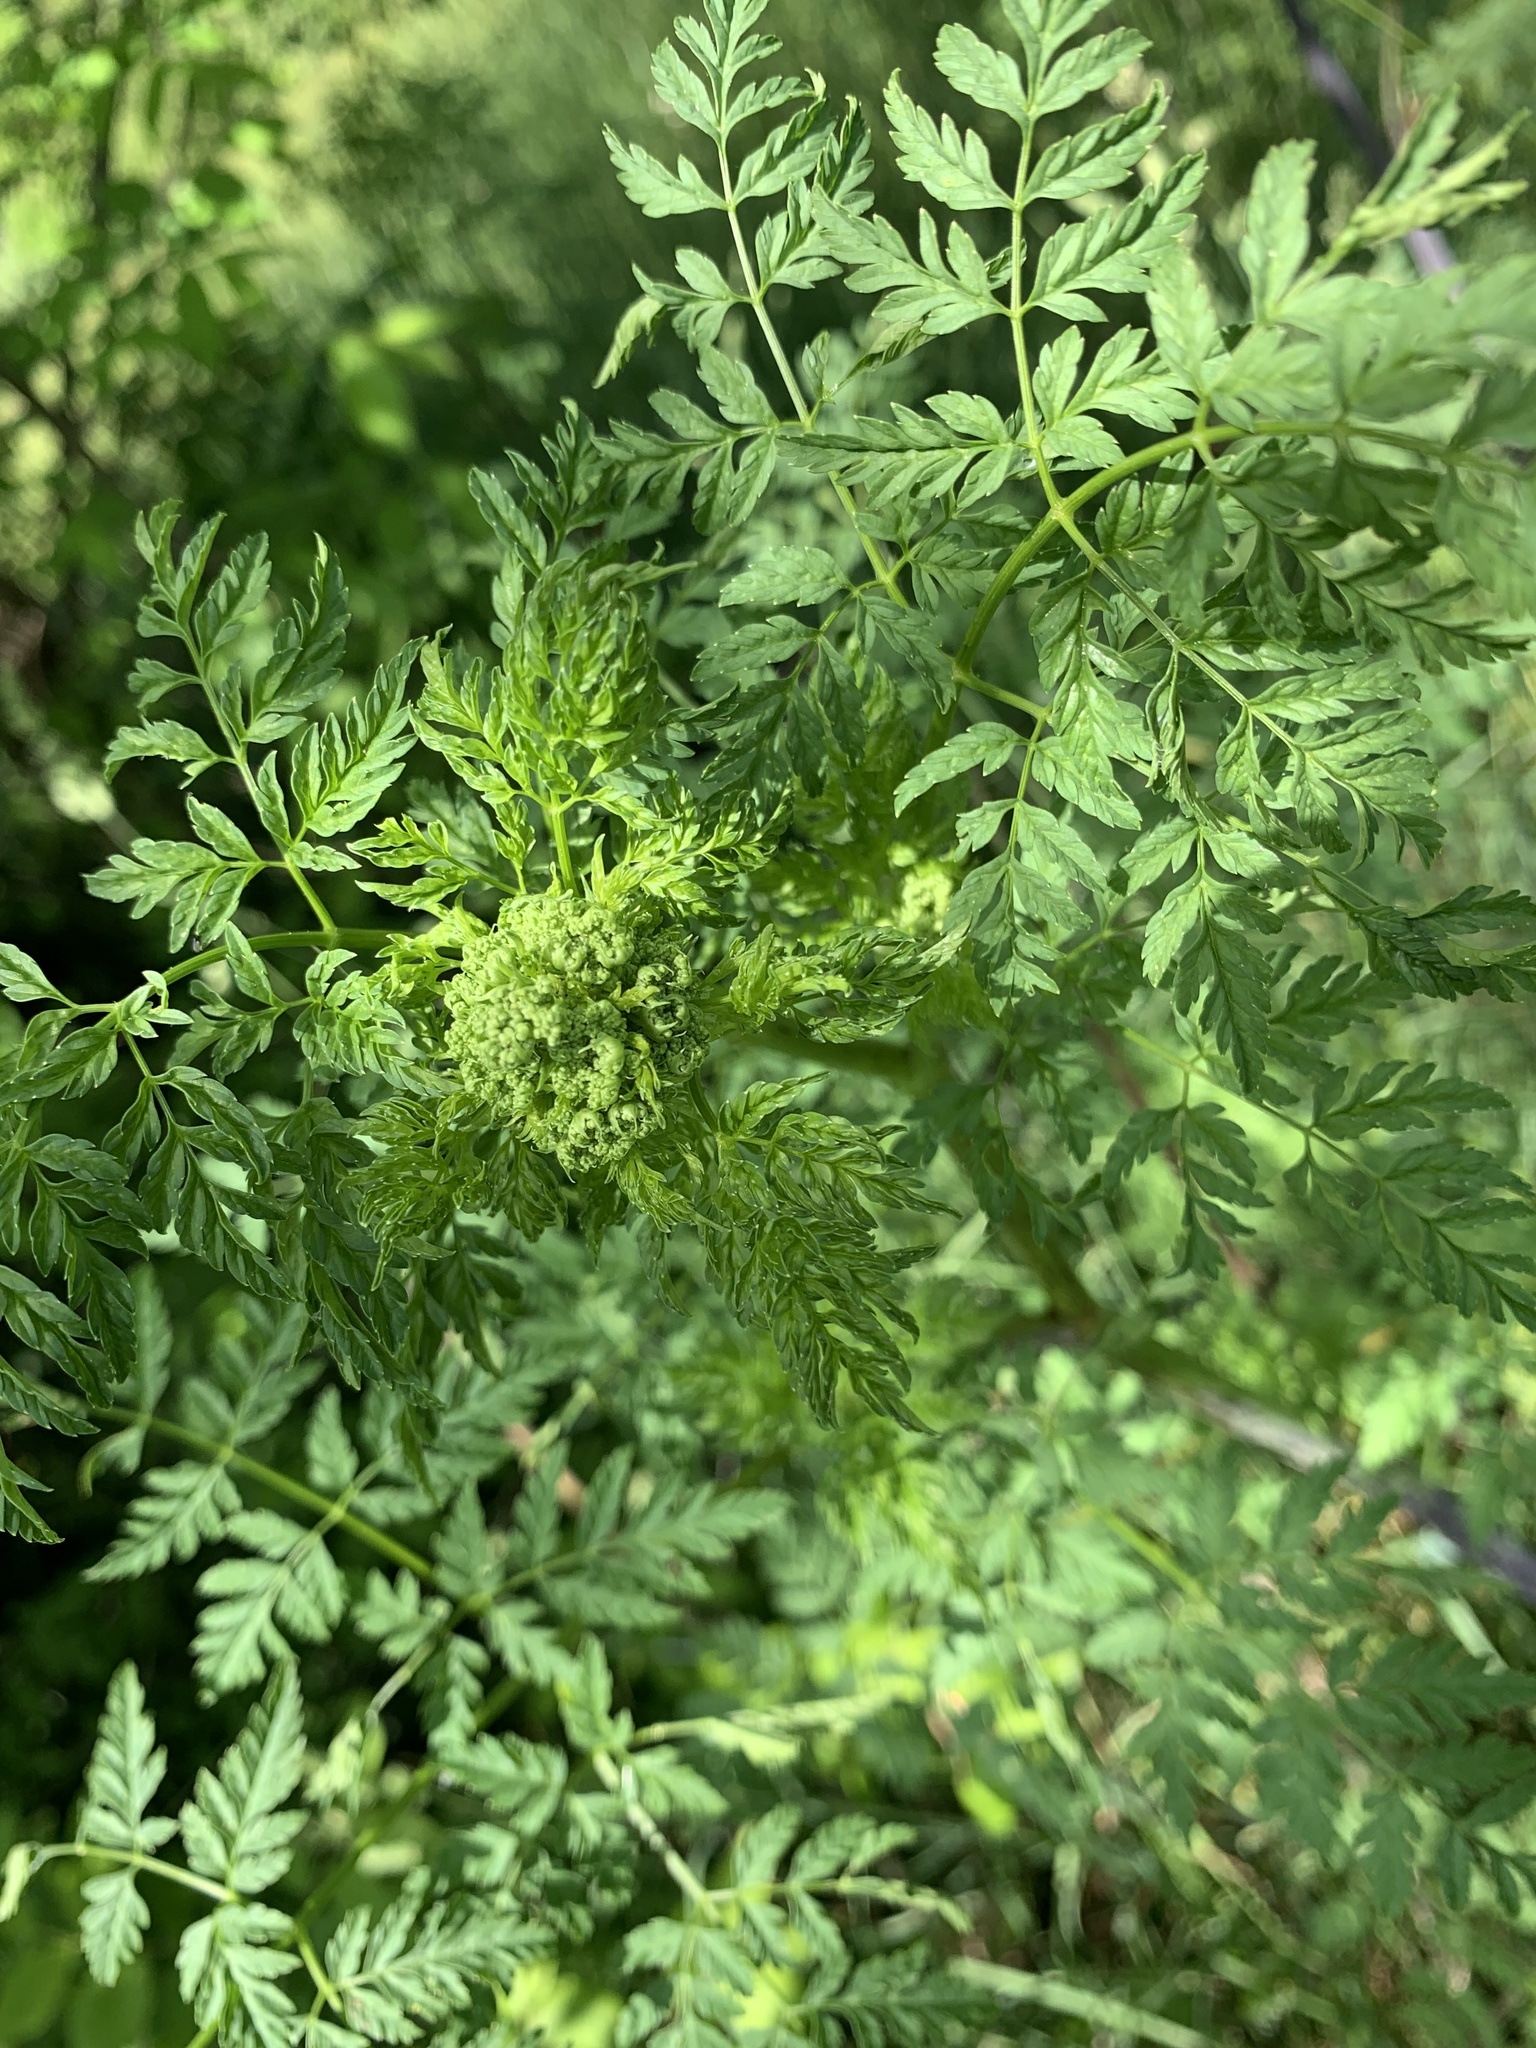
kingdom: Plantae
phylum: Tracheophyta
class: Magnoliopsida
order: Apiales
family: Apiaceae
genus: Conium
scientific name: Conium maculatum
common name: Hemlock
